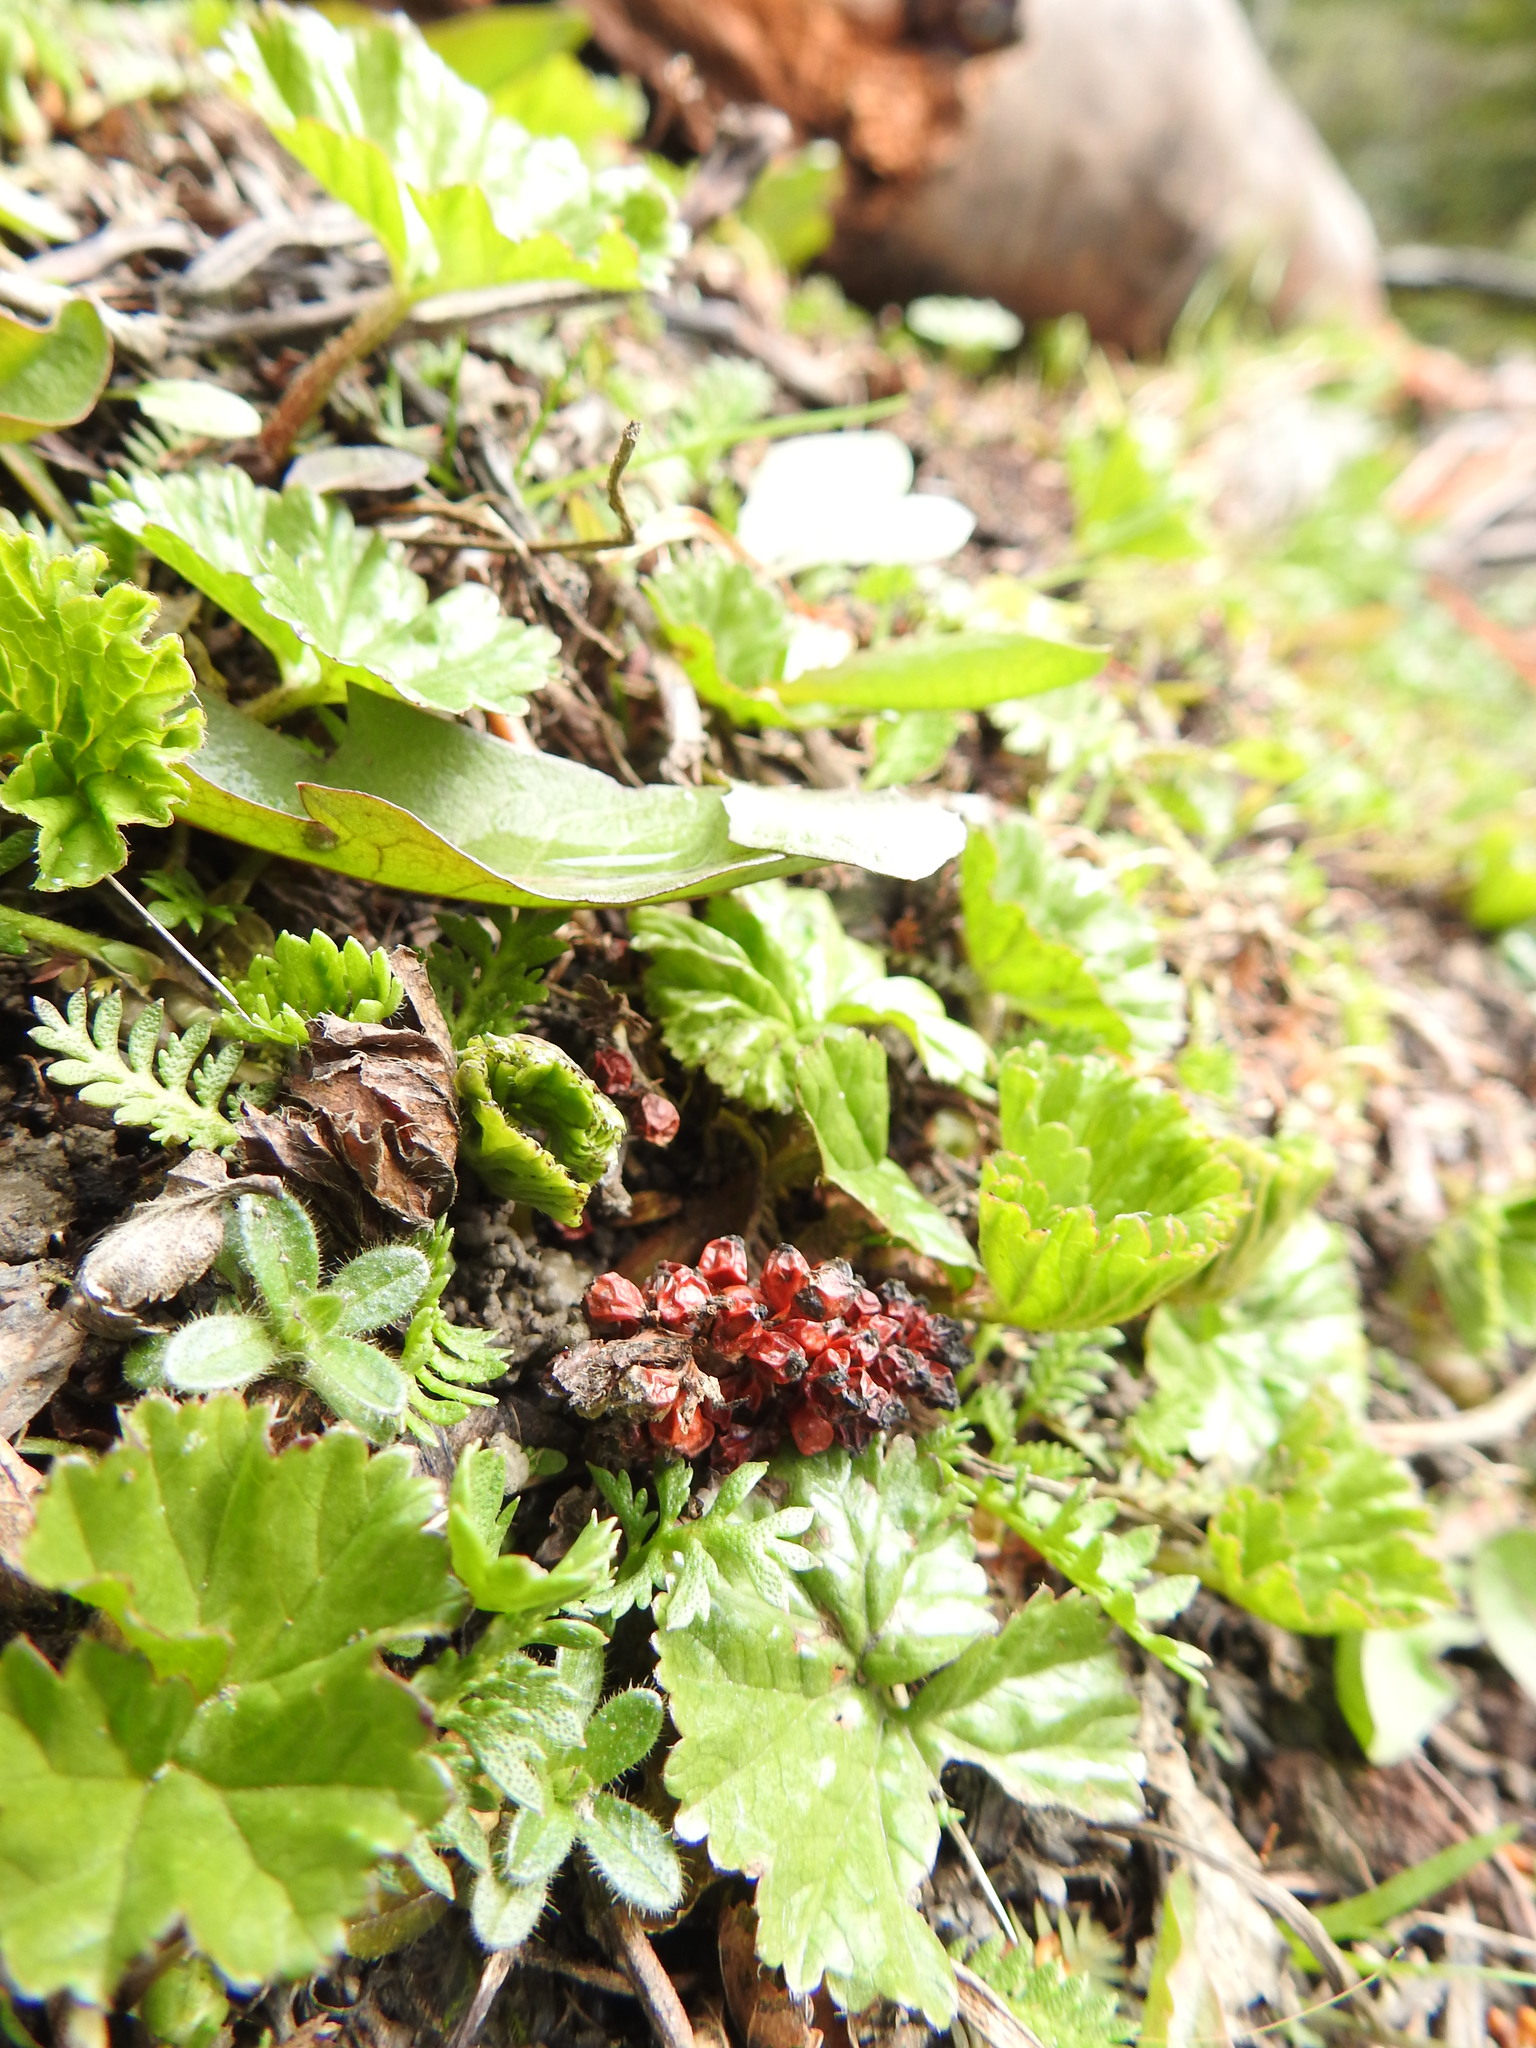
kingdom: Plantae
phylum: Tracheophyta
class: Magnoliopsida
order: Gunnerales
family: Gunneraceae
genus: Gunnera
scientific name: Gunnera magellanica
